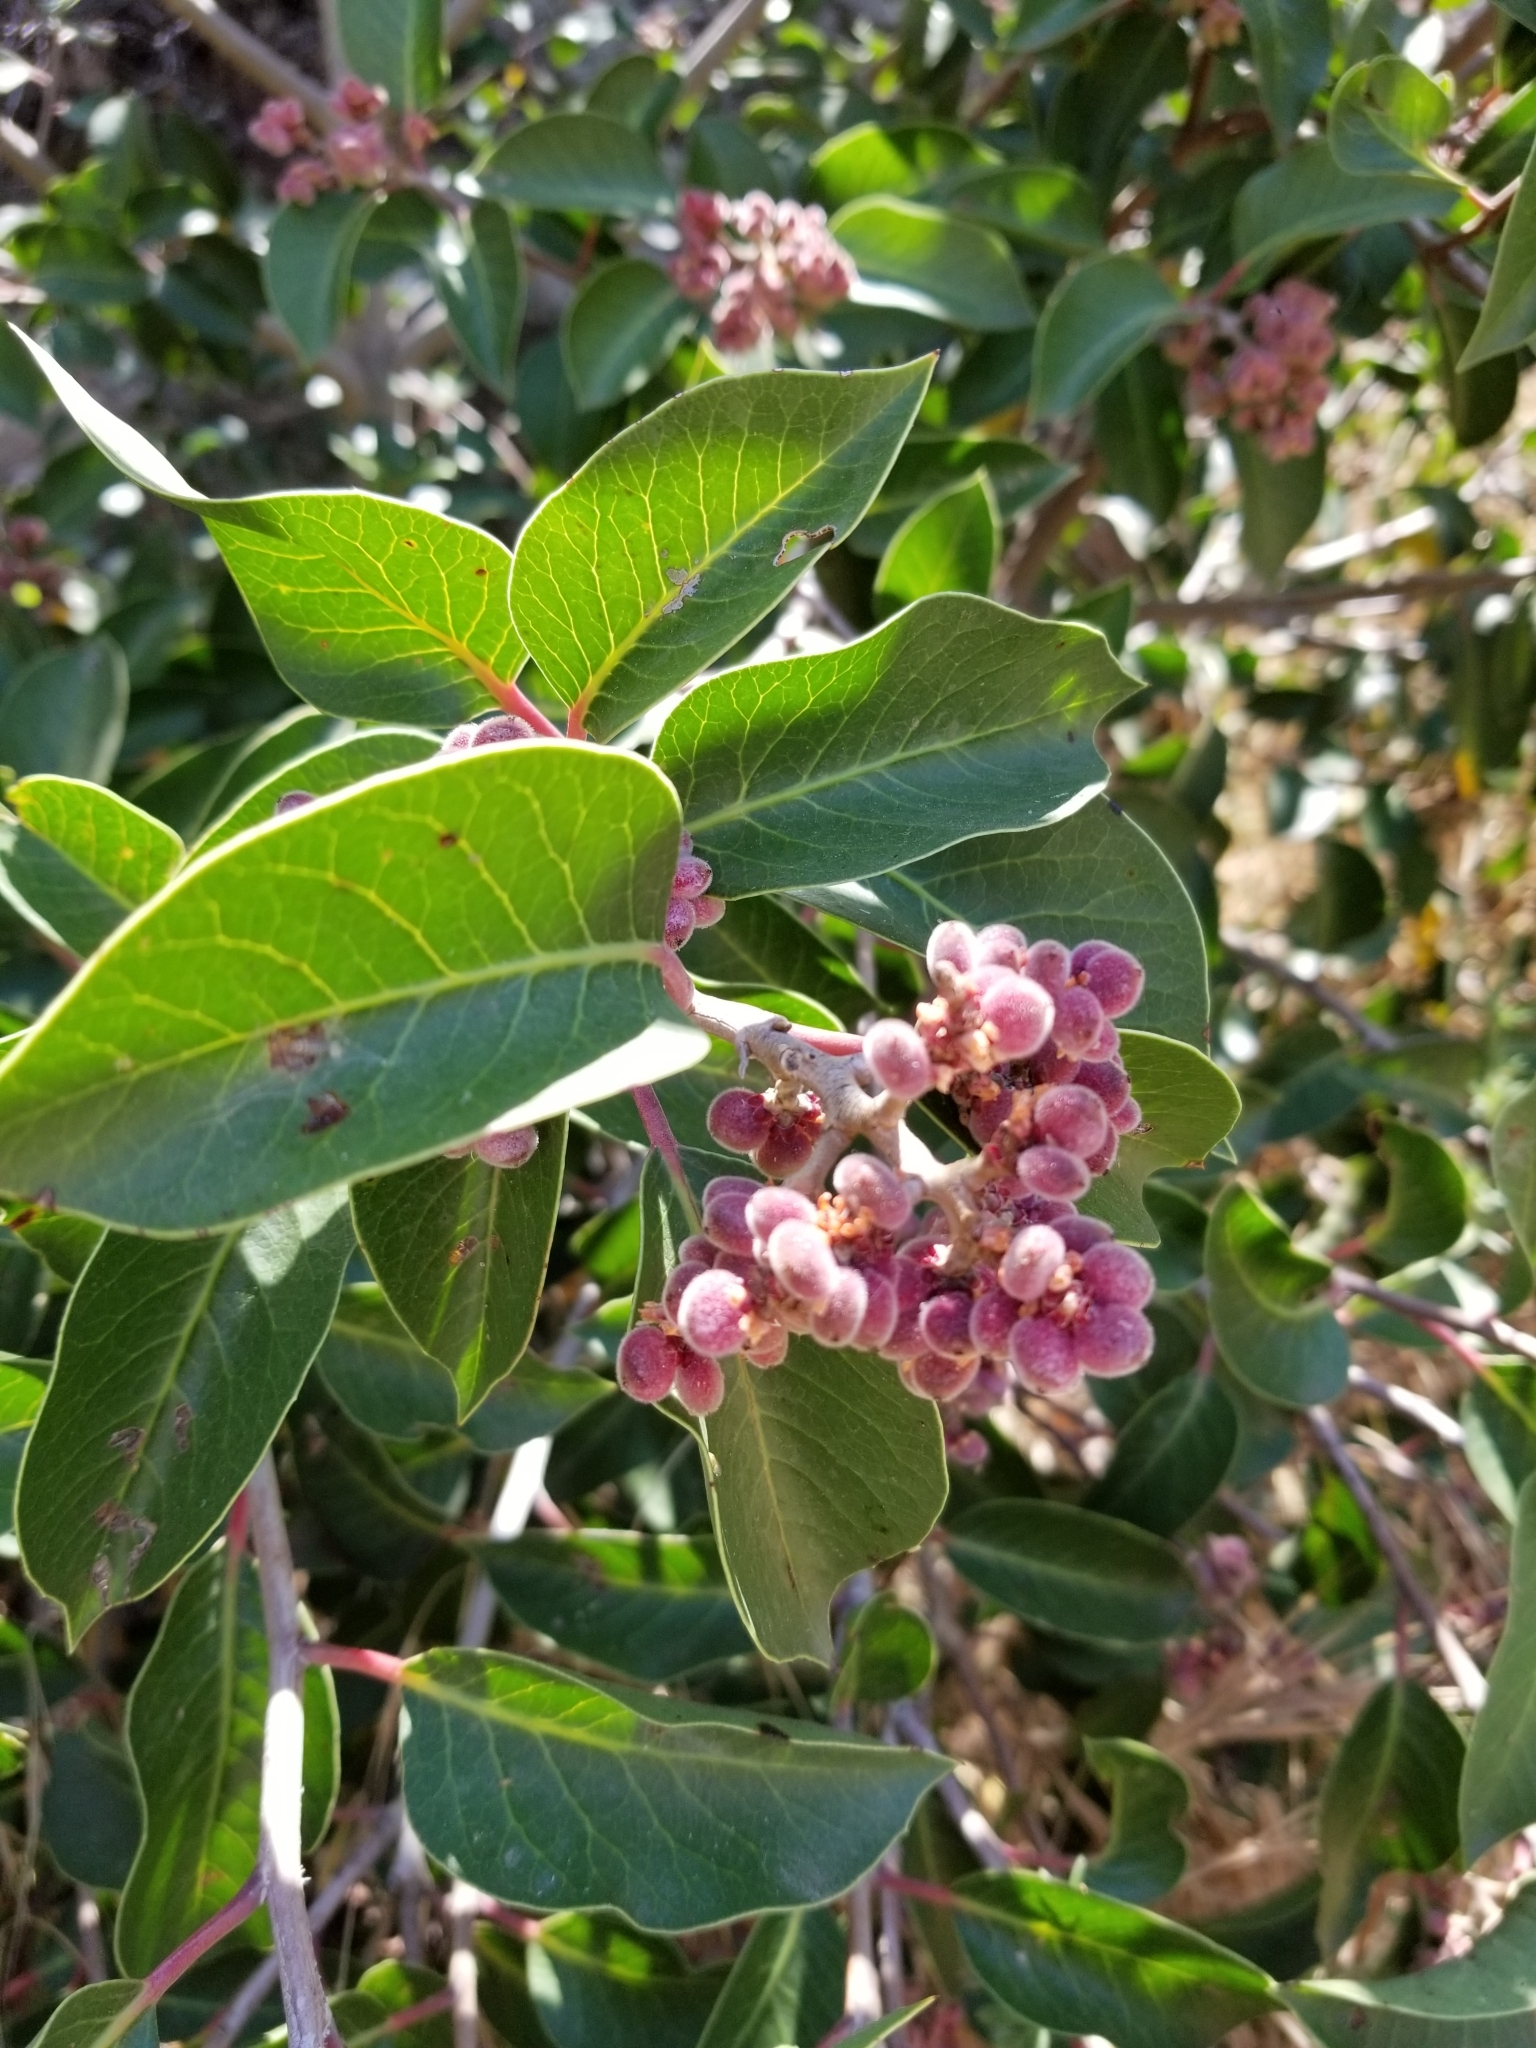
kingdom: Plantae
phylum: Tracheophyta
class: Magnoliopsida
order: Sapindales
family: Anacardiaceae
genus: Rhus
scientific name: Rhus ovata
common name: Sugar sumac
